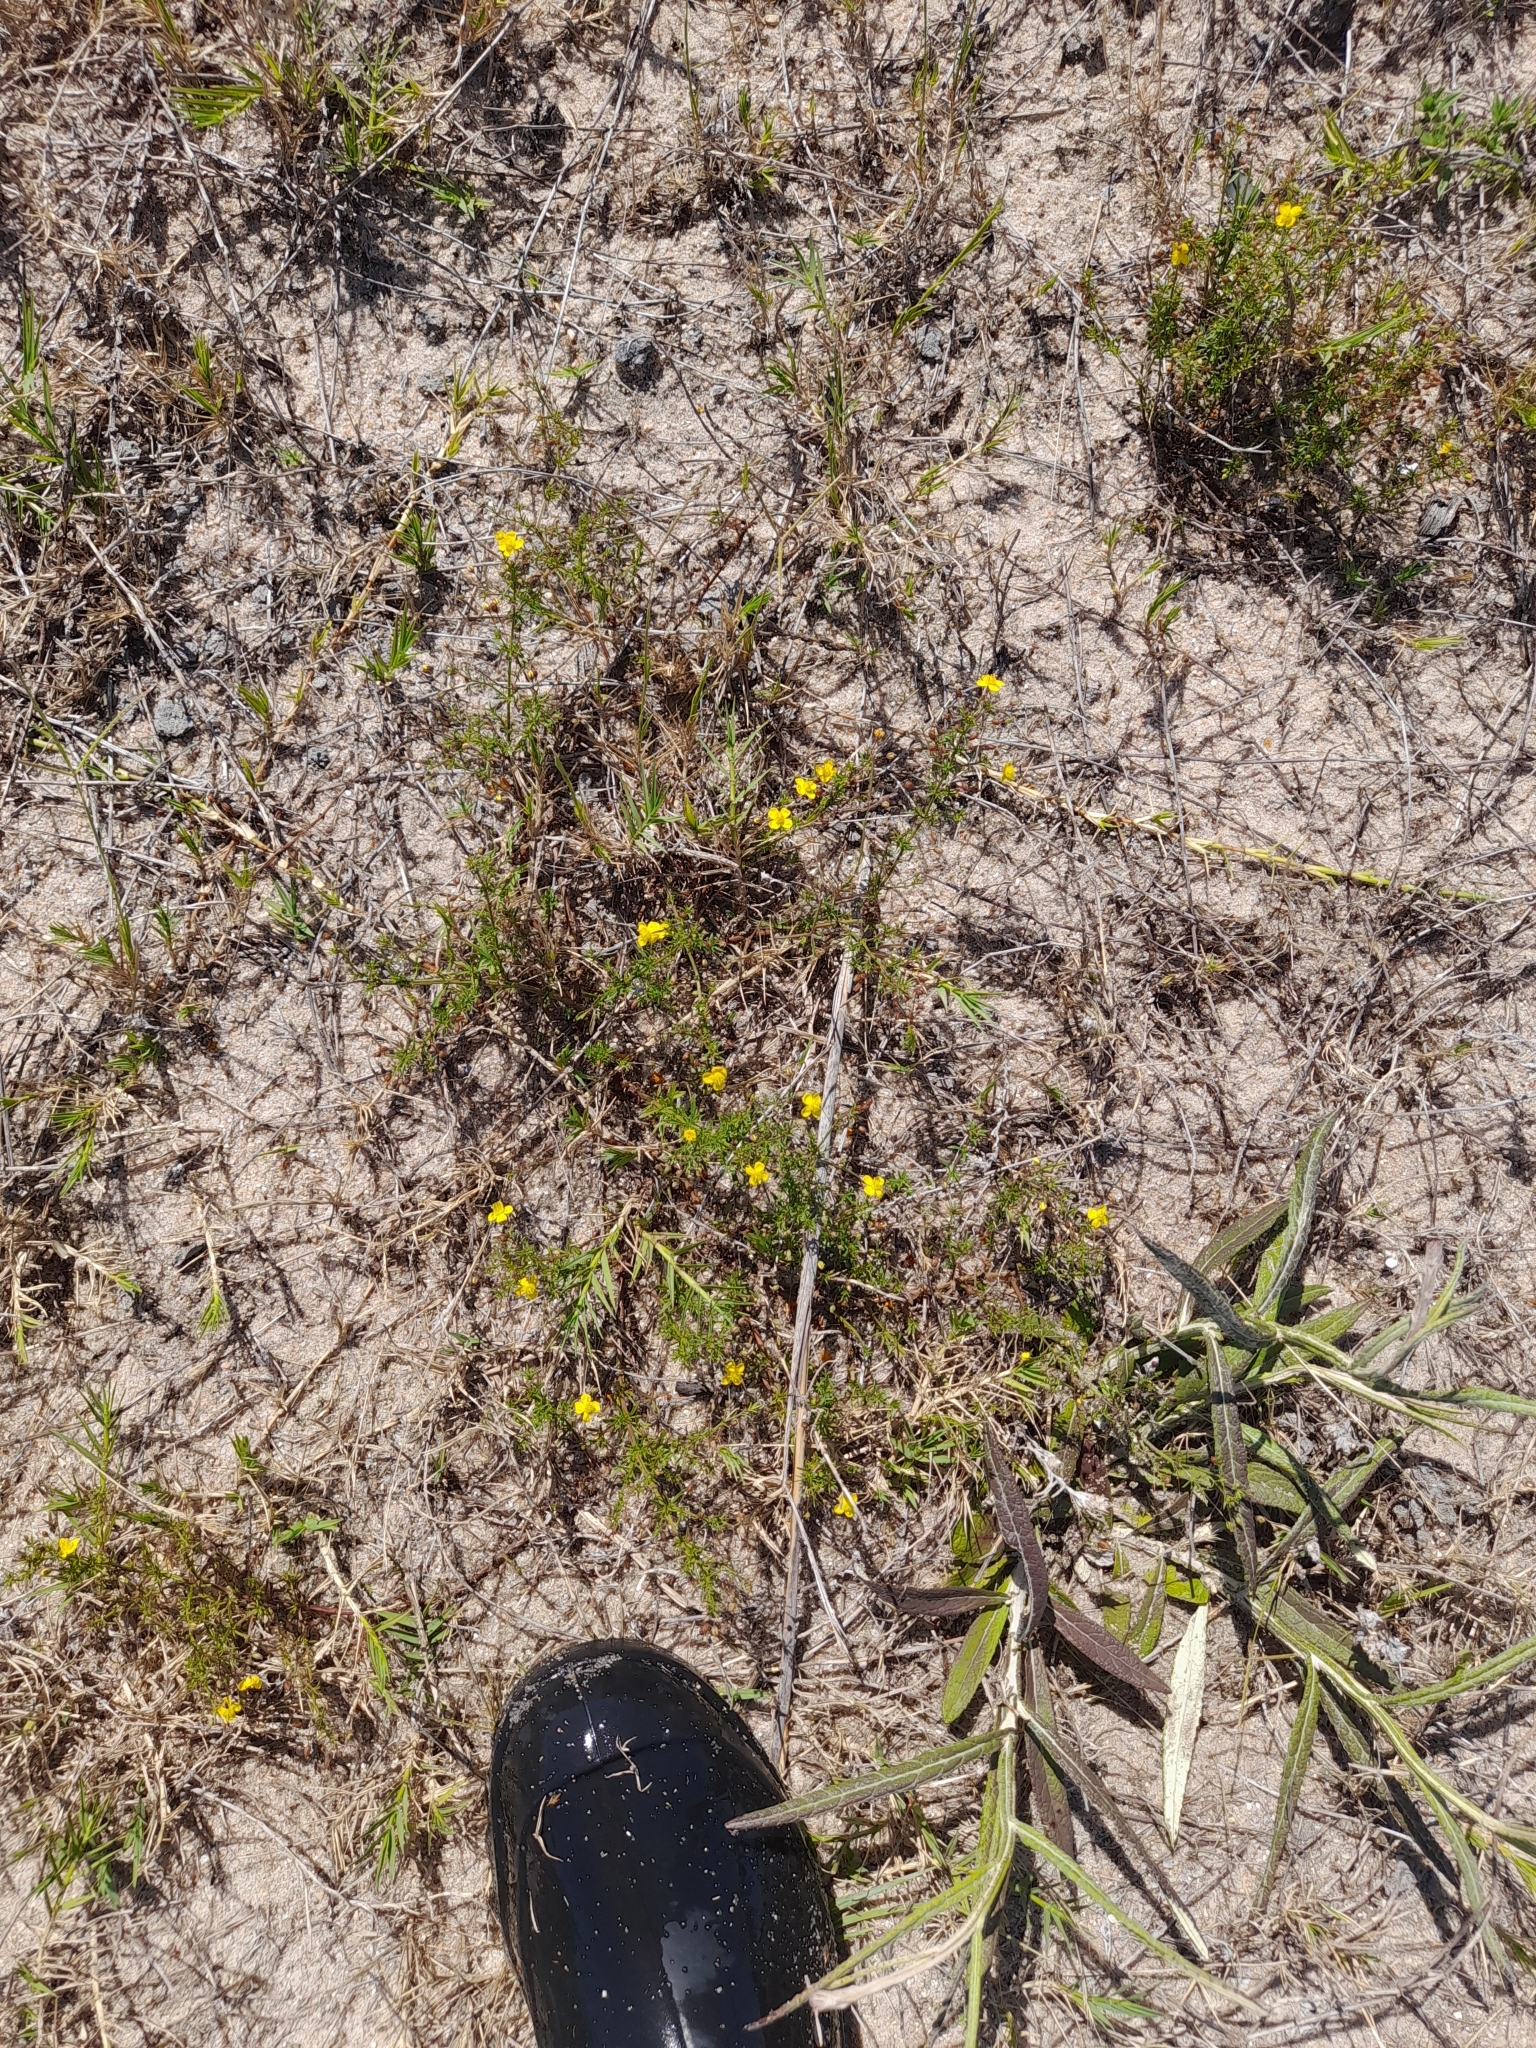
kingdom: Plantae
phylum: Tracheophyta
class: Magnoliopsida
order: Lamiales
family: Plantaginaceae
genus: Scoparia
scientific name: Scoparia montevidensis
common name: Broomwort
